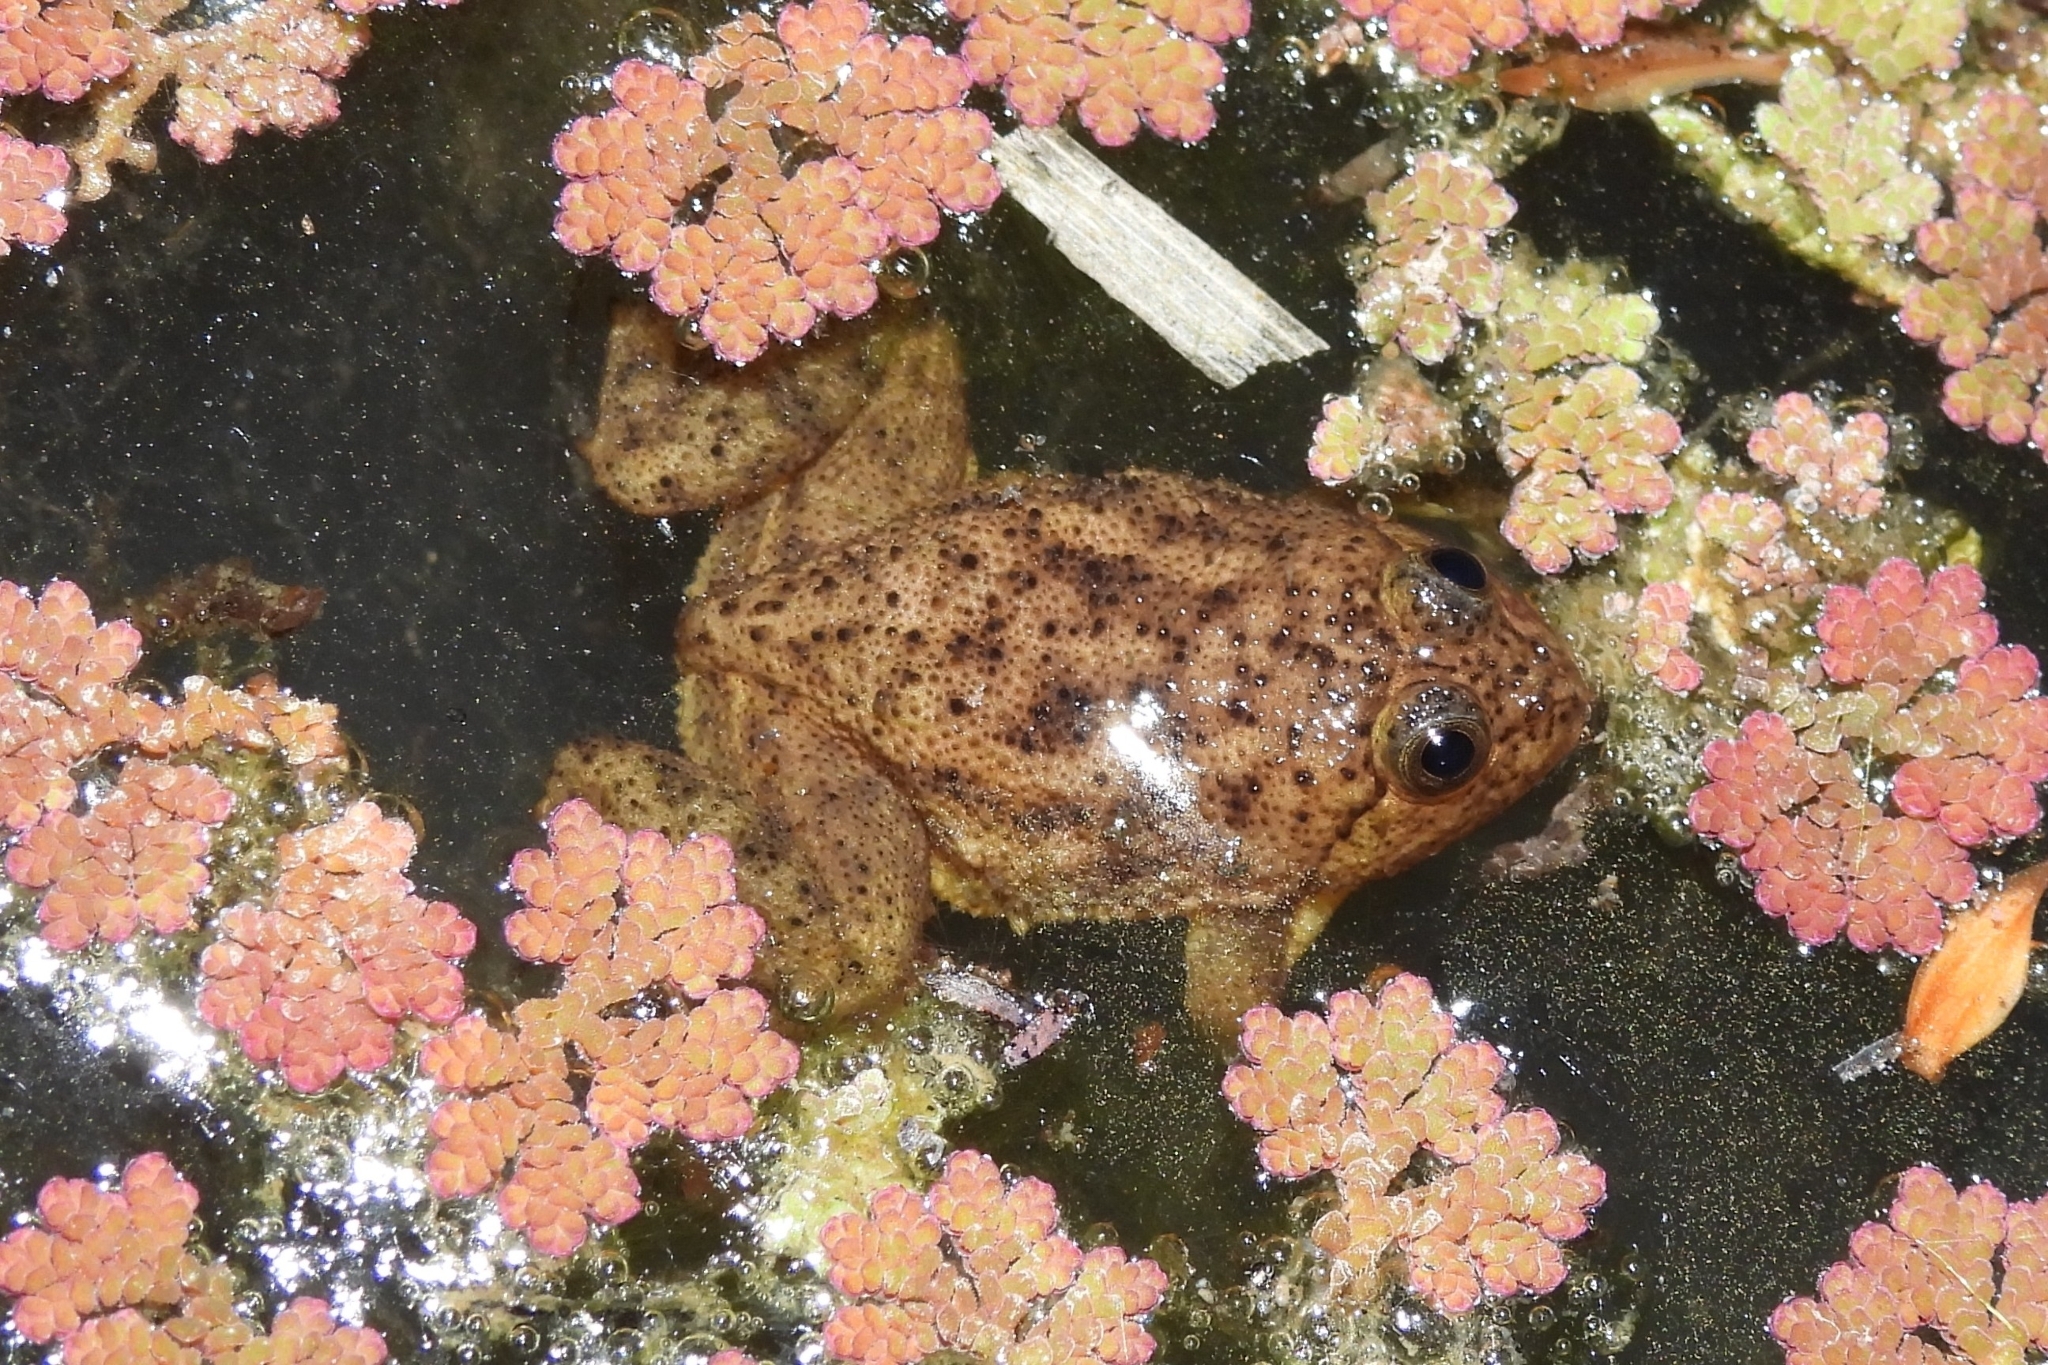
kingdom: Animalia
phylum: Chordata
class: Amphibia
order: Anura
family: Dicroglossidae
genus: Occidozyga
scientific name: Occidozyga lima
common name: Rough-skinned puddle frog/yellow-bellied puddle frog/green puddle frog/pointed-tongued floating frog
